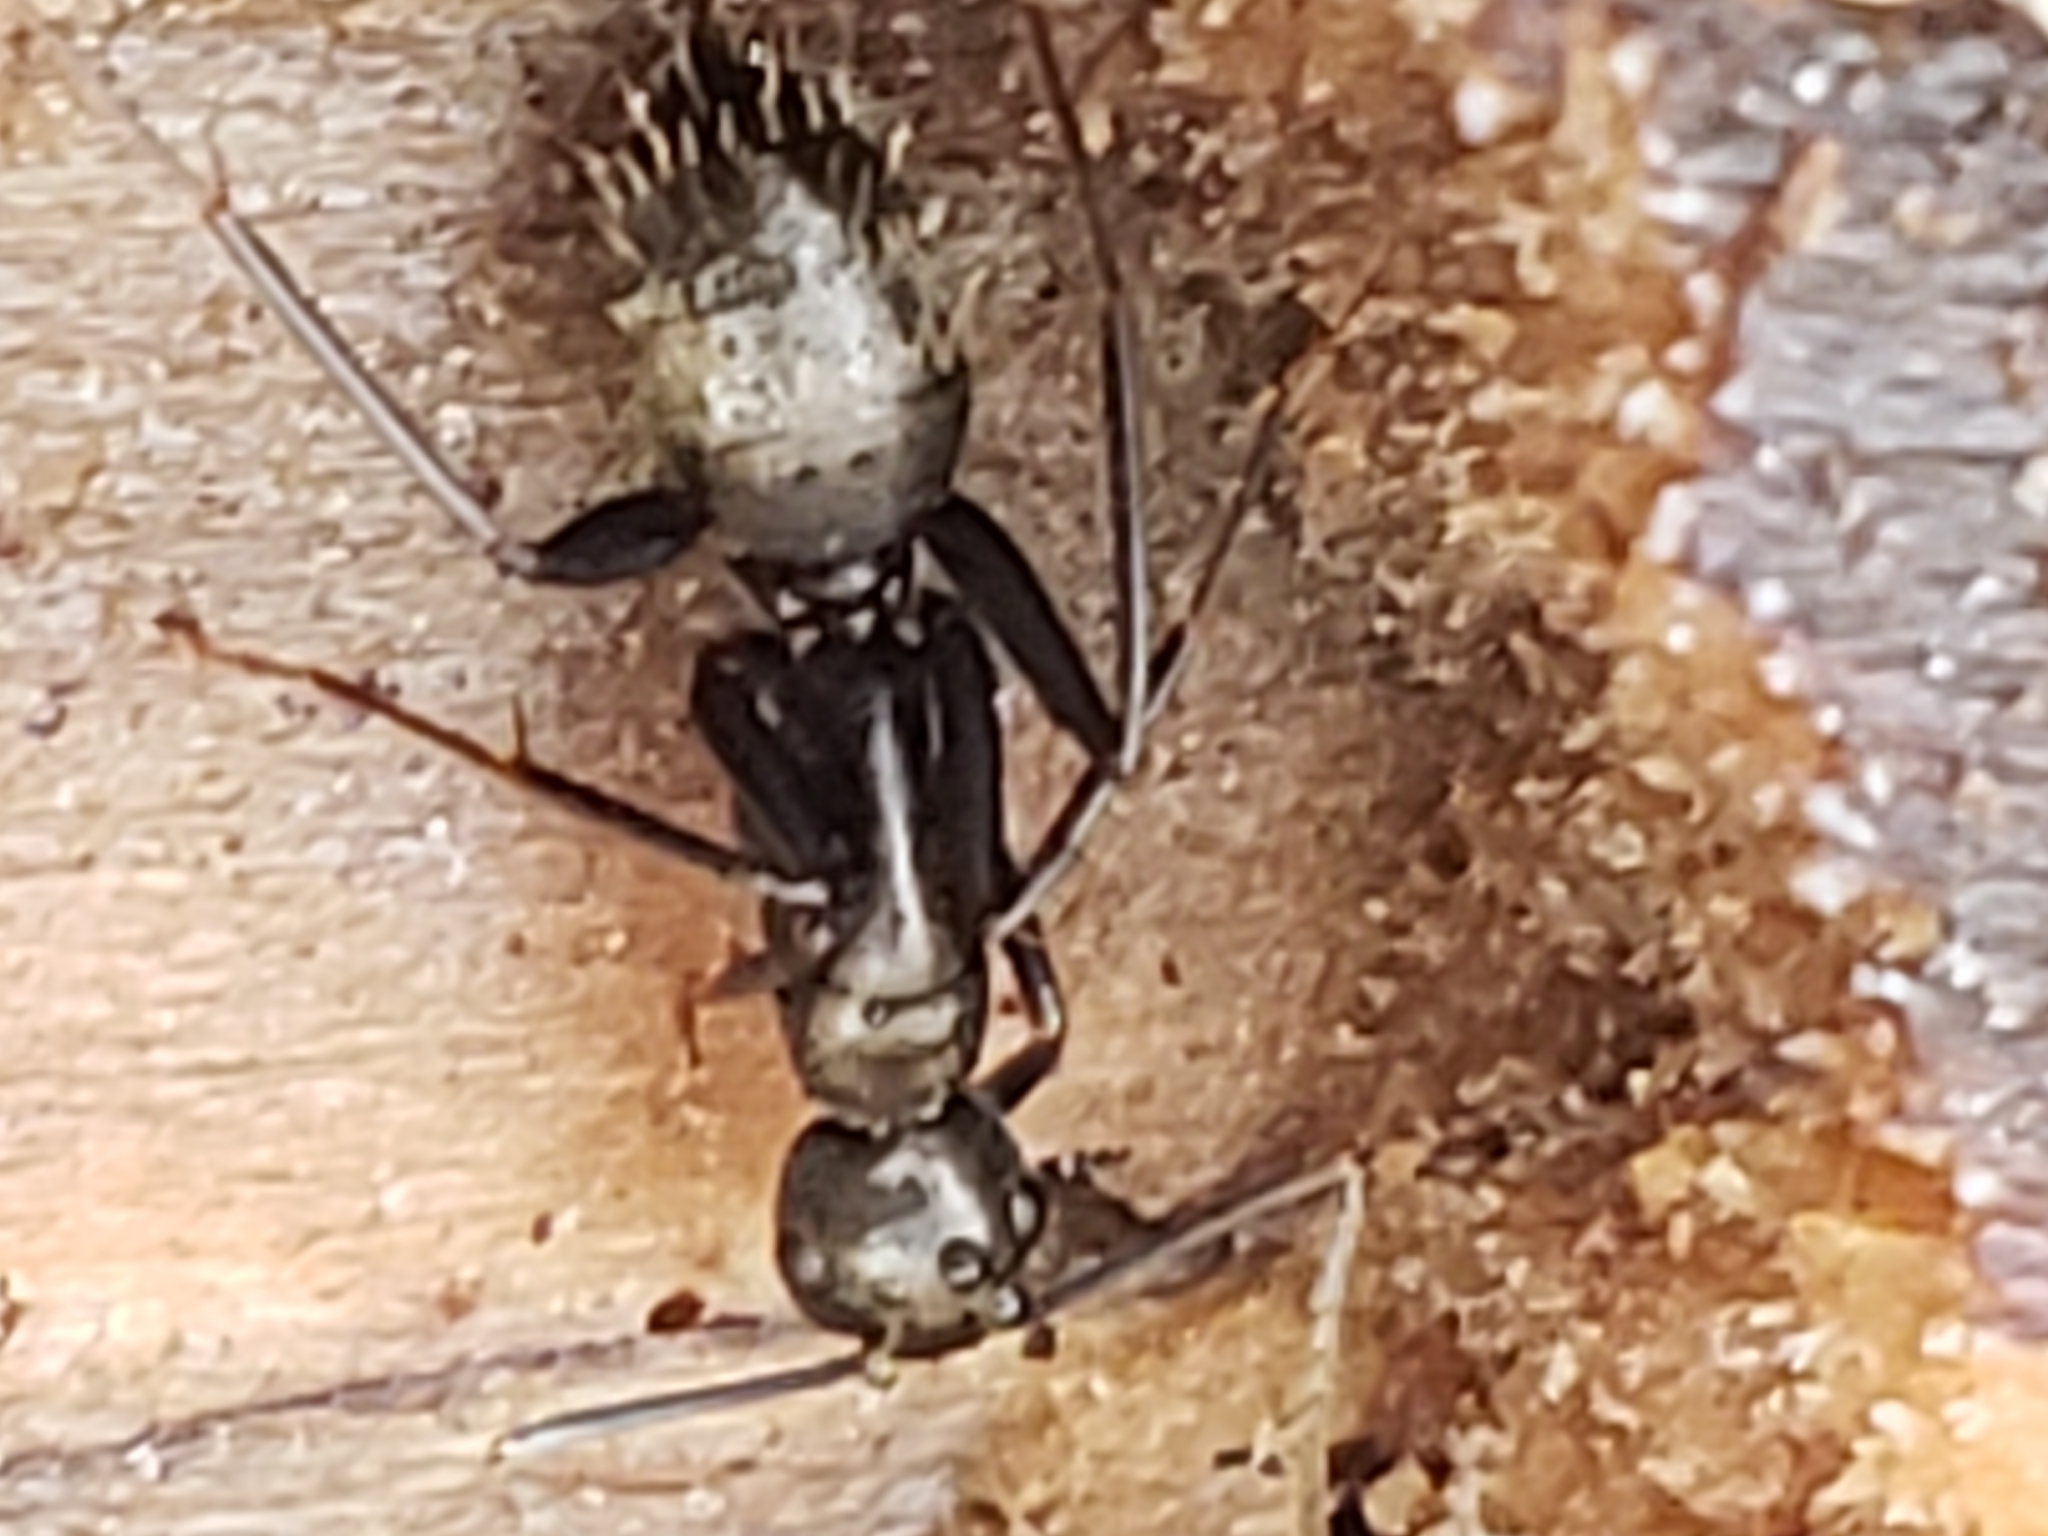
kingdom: Animalia
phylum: Arthropoda
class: Insecta
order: Hymenoptera
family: Formicidae
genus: Camponotus
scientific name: Camponotus pennsylvanicus
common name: Black carpenter ant
